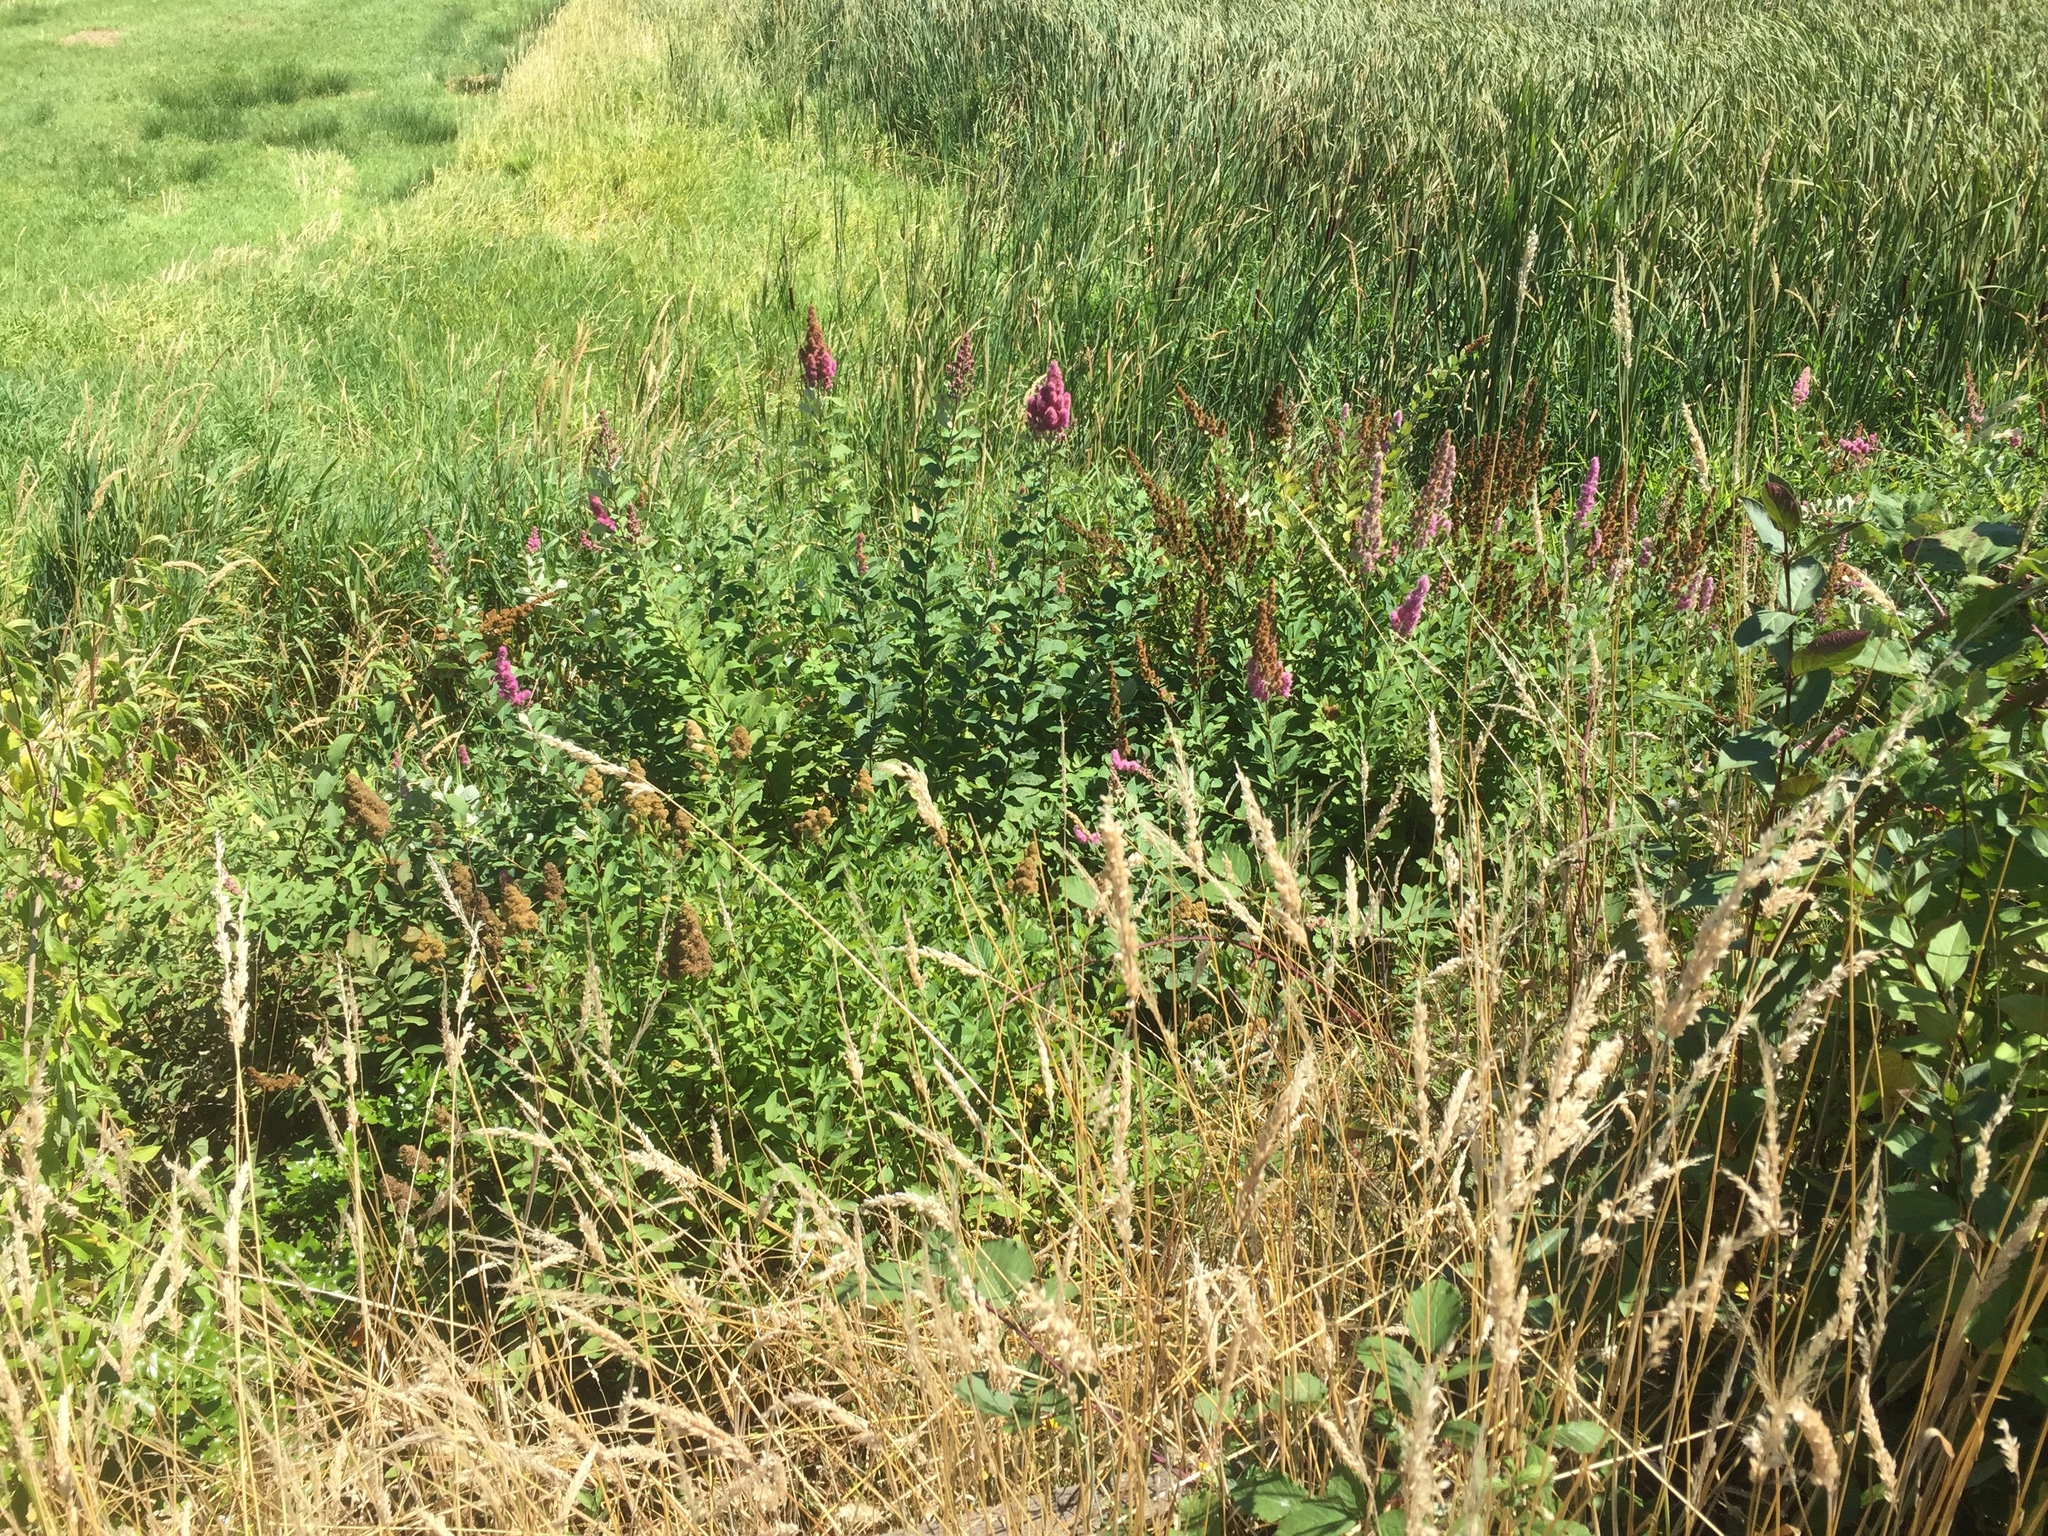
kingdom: Plantae
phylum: Tracheophyta
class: Magnoliopsida
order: Rosales
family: Rosaceae
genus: Spiraea
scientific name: Spiraea douglasii
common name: Steeplebush
